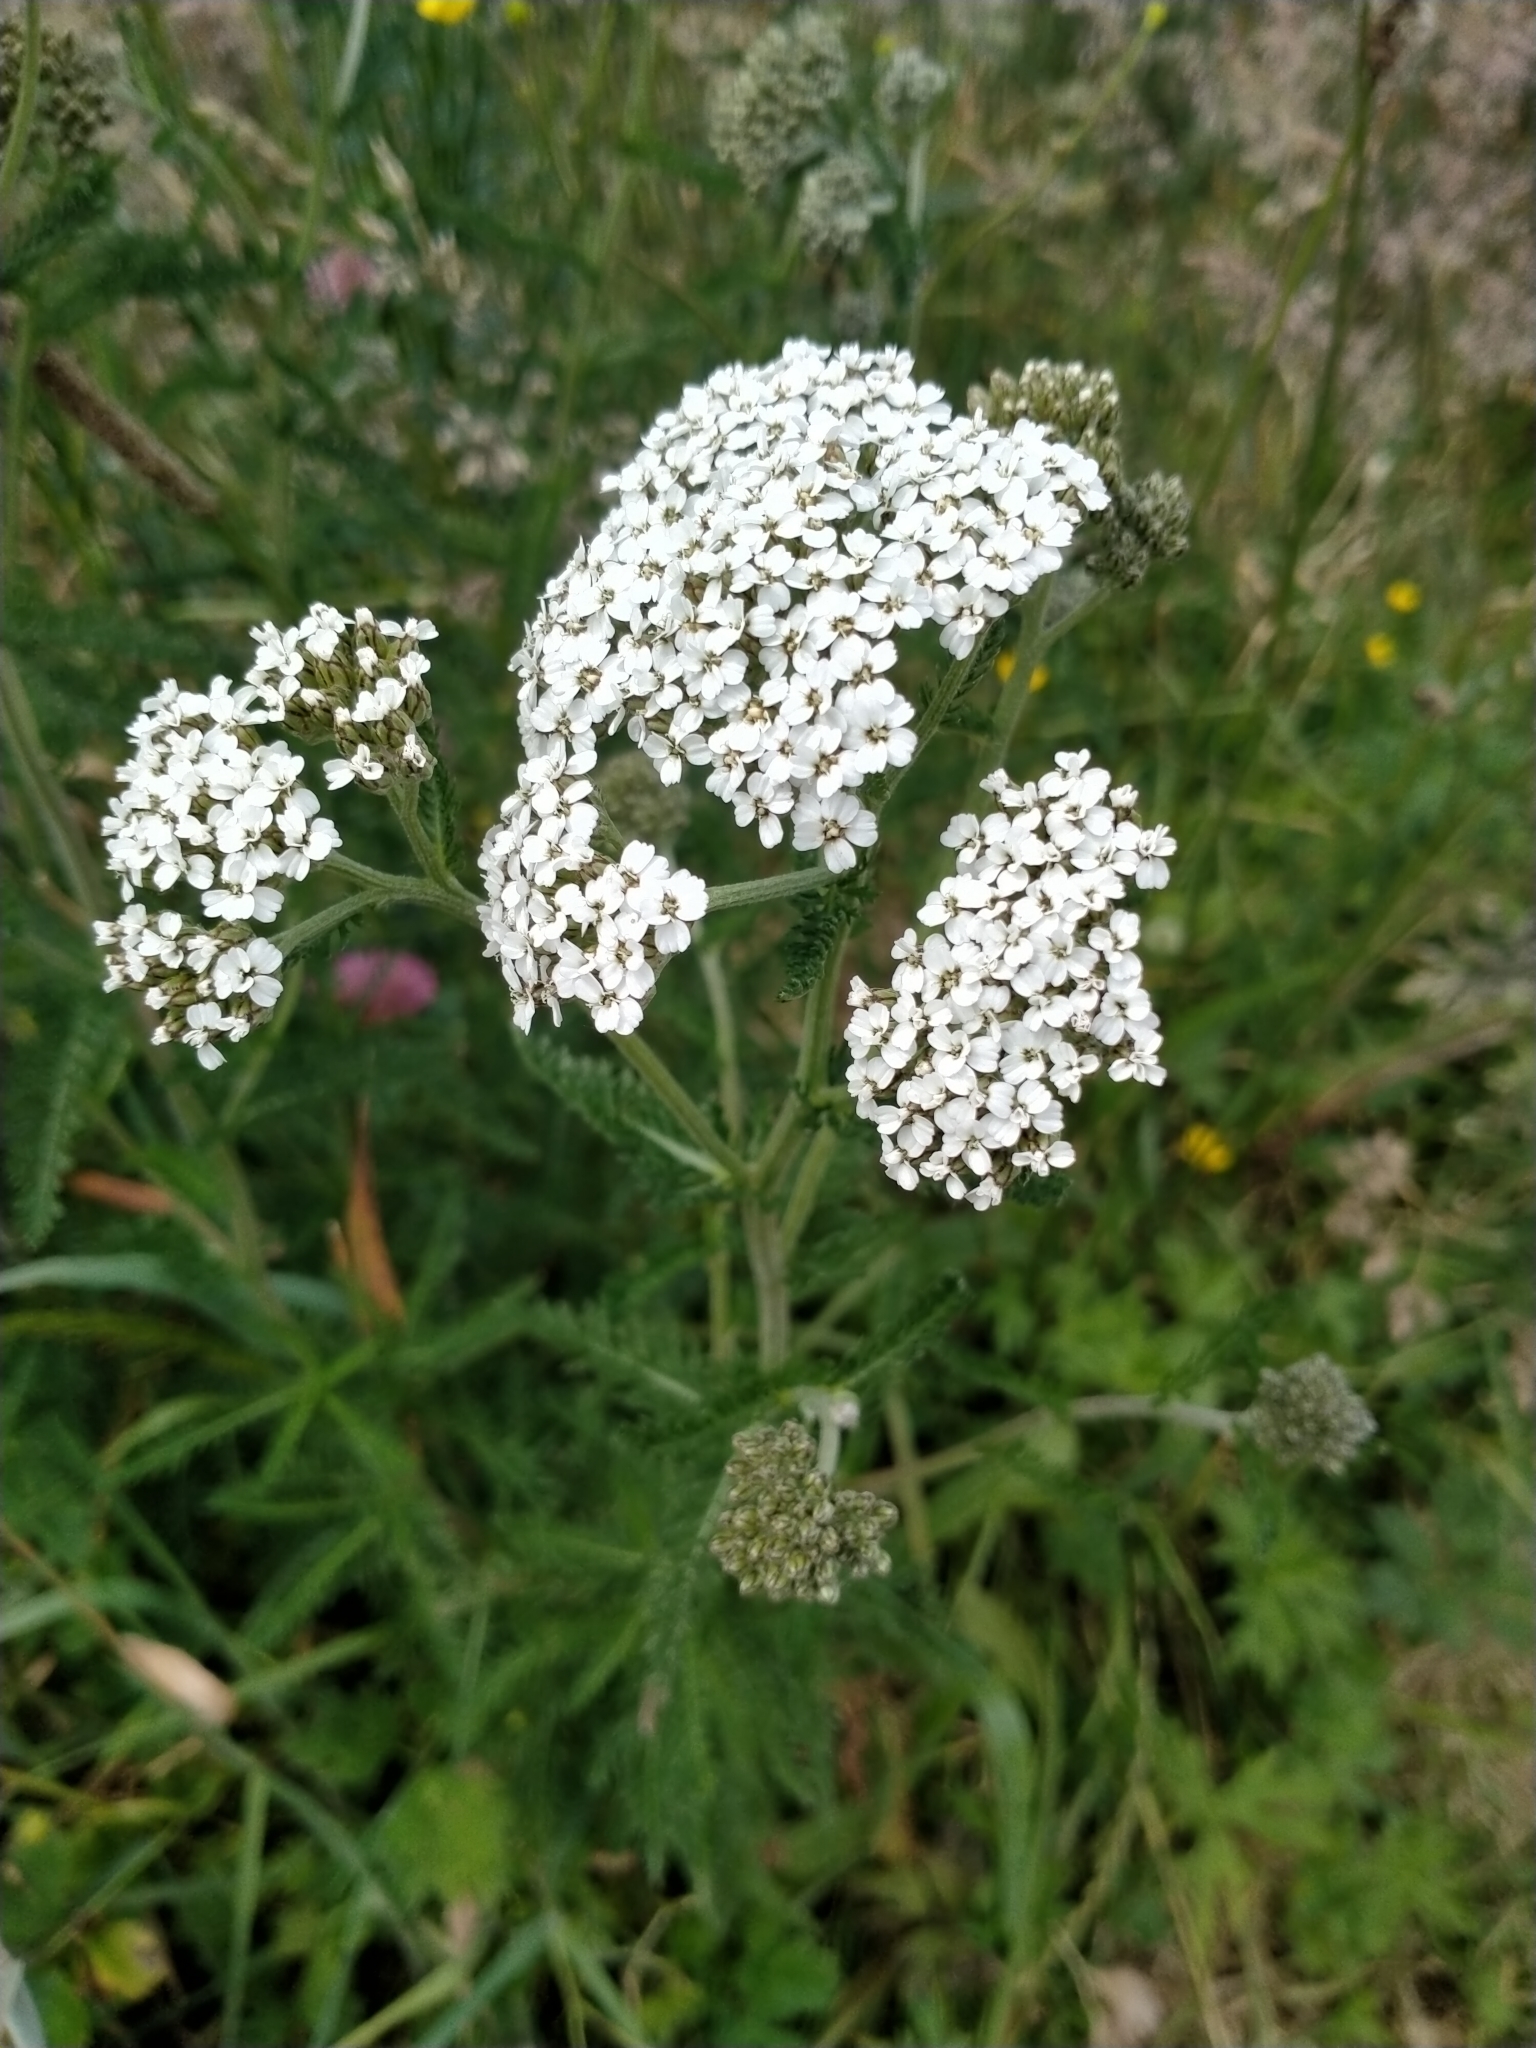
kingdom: Plantae
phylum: Tracheophyta
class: Magnoliopsida
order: Asterales
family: Asteraceae
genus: Achillea
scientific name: Achillea millefolium
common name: Yarrow
